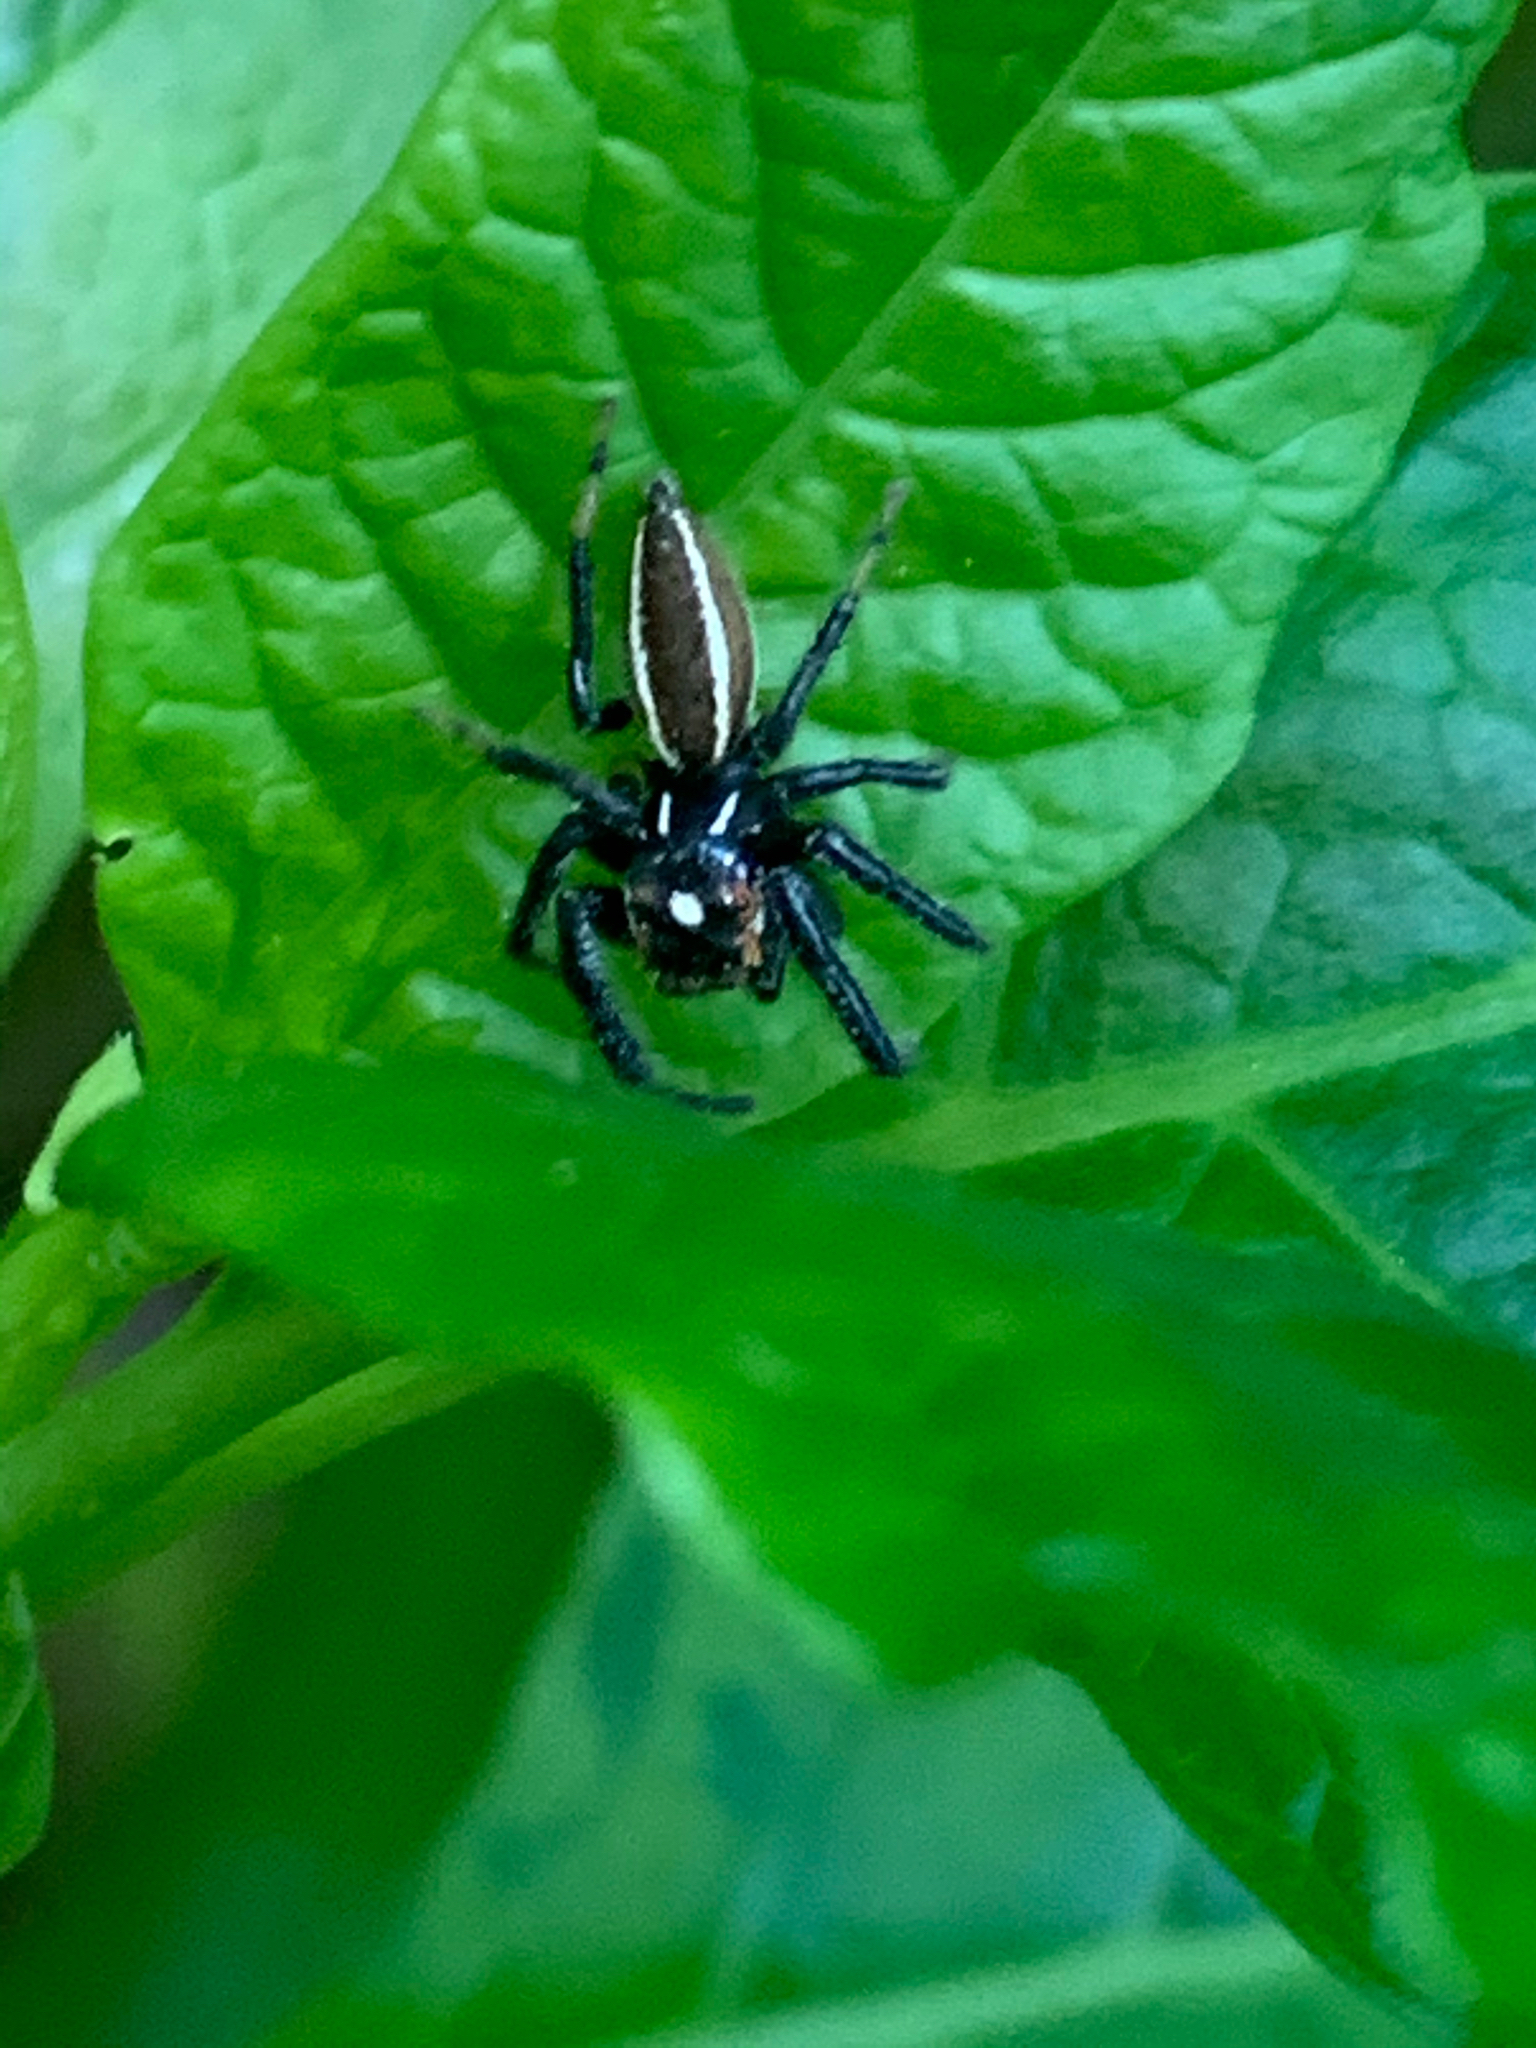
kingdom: Animalia
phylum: Arthropoda
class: Arachnida
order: Araneae
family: Salticidae
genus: Colonus
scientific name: Colonus sylvanus
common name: Jumping spiders
